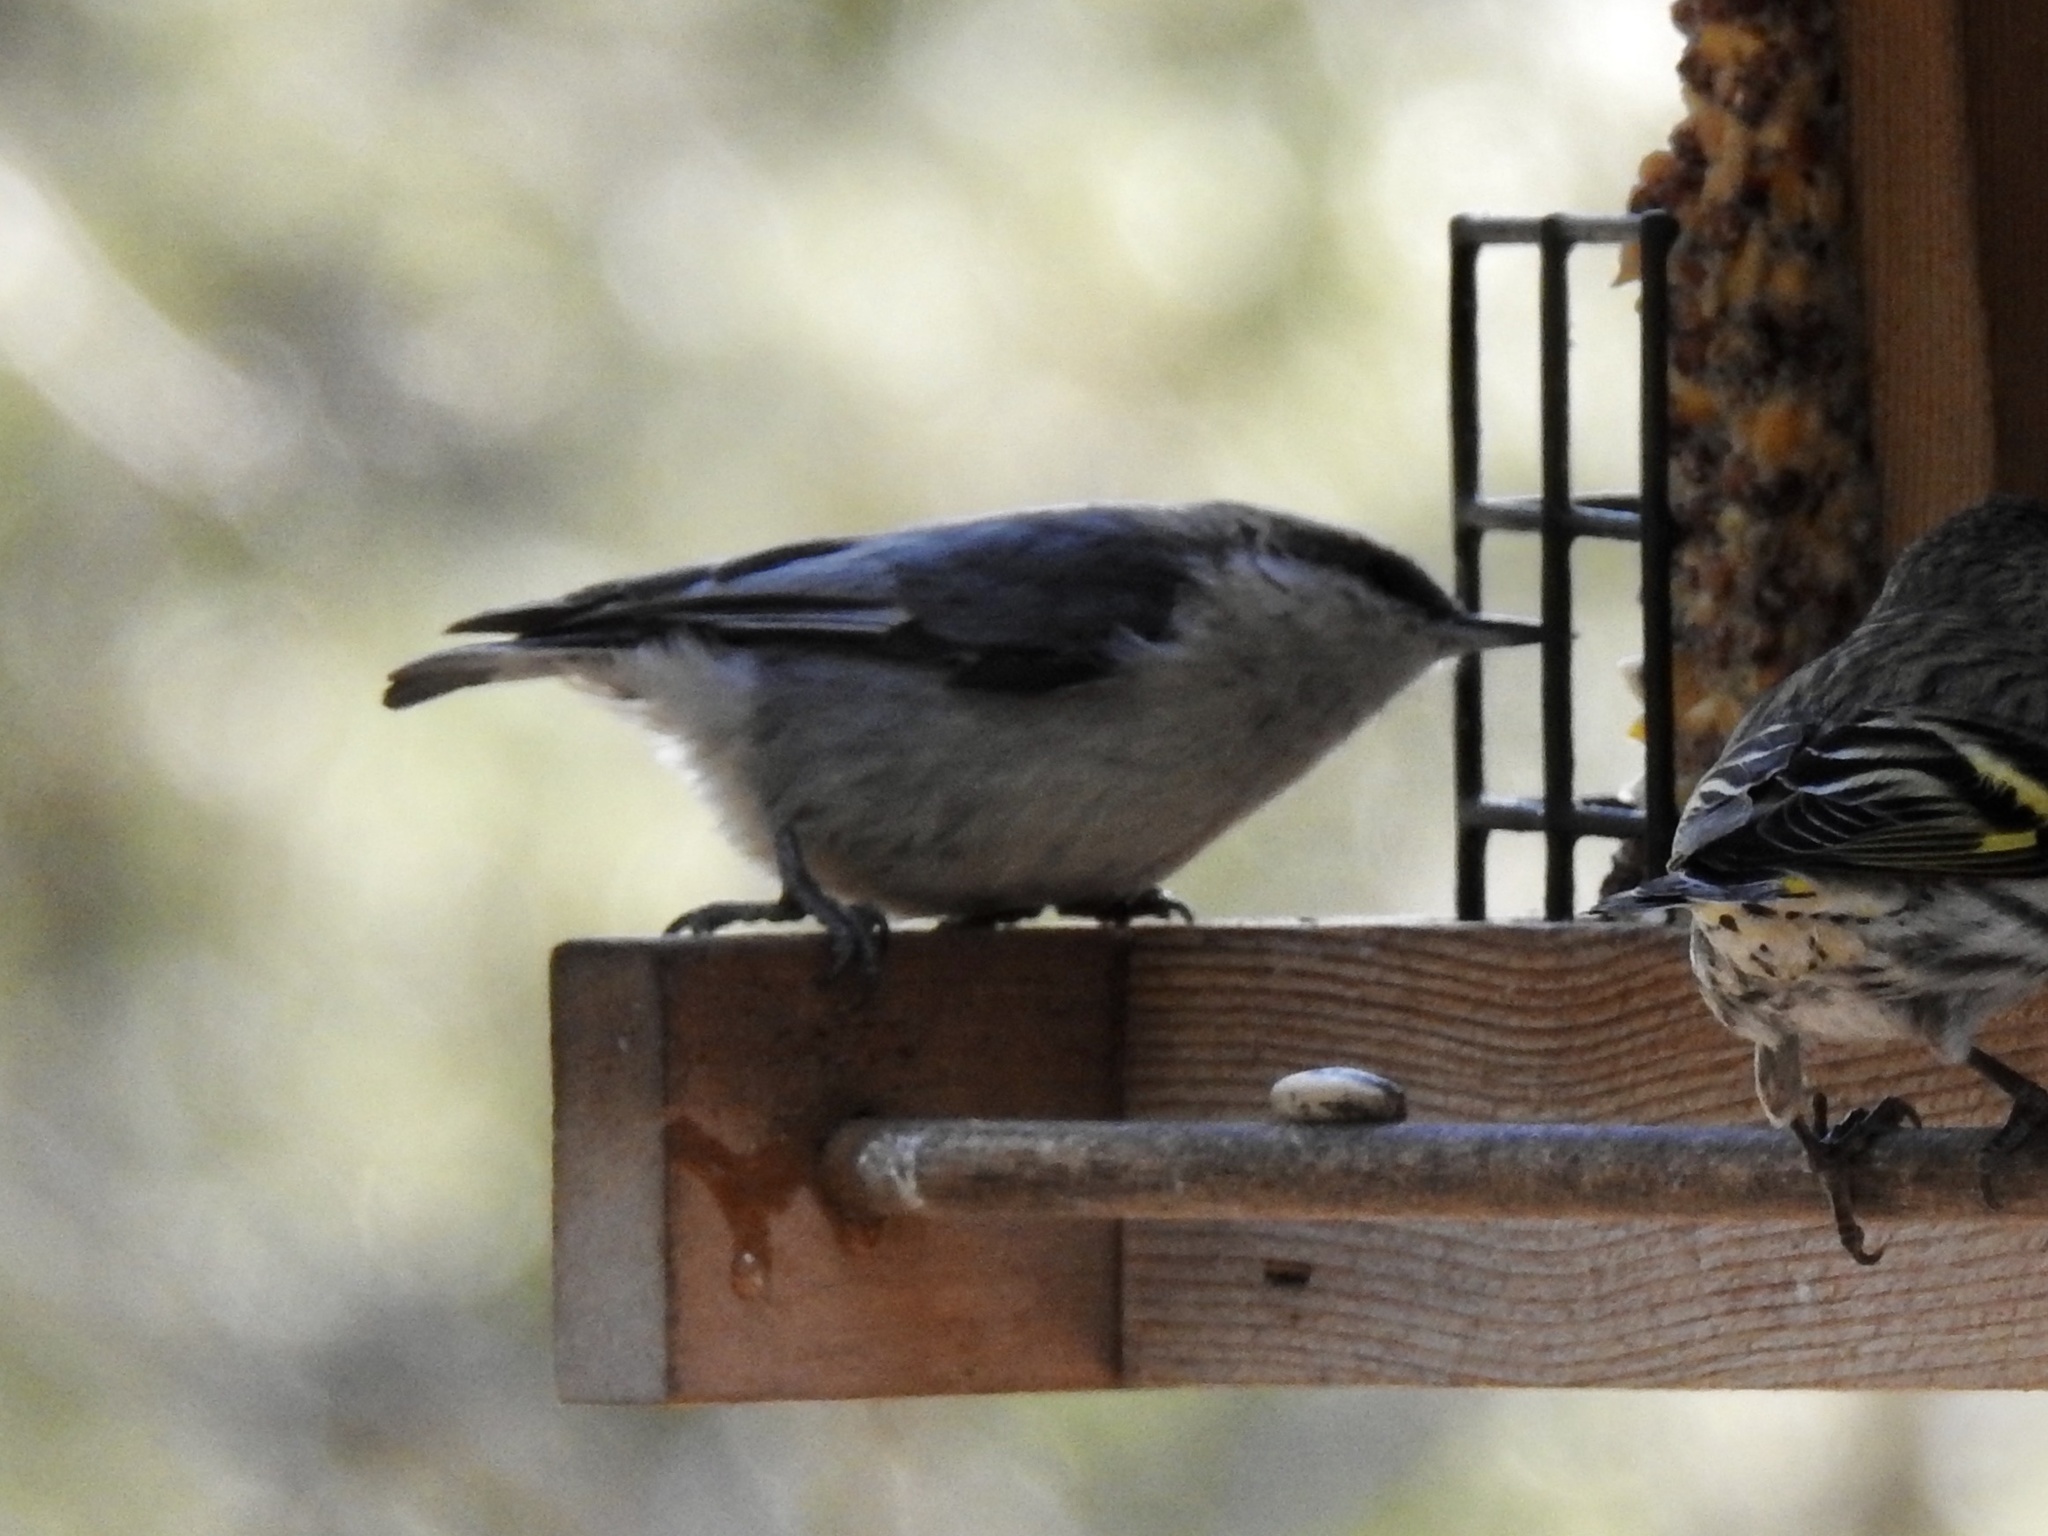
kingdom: Animalia
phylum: Chordata
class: Aves
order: Passeriformes
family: Sittidae
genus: Sitta
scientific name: Sitta pygmaea
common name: Pygmy nuthatch
